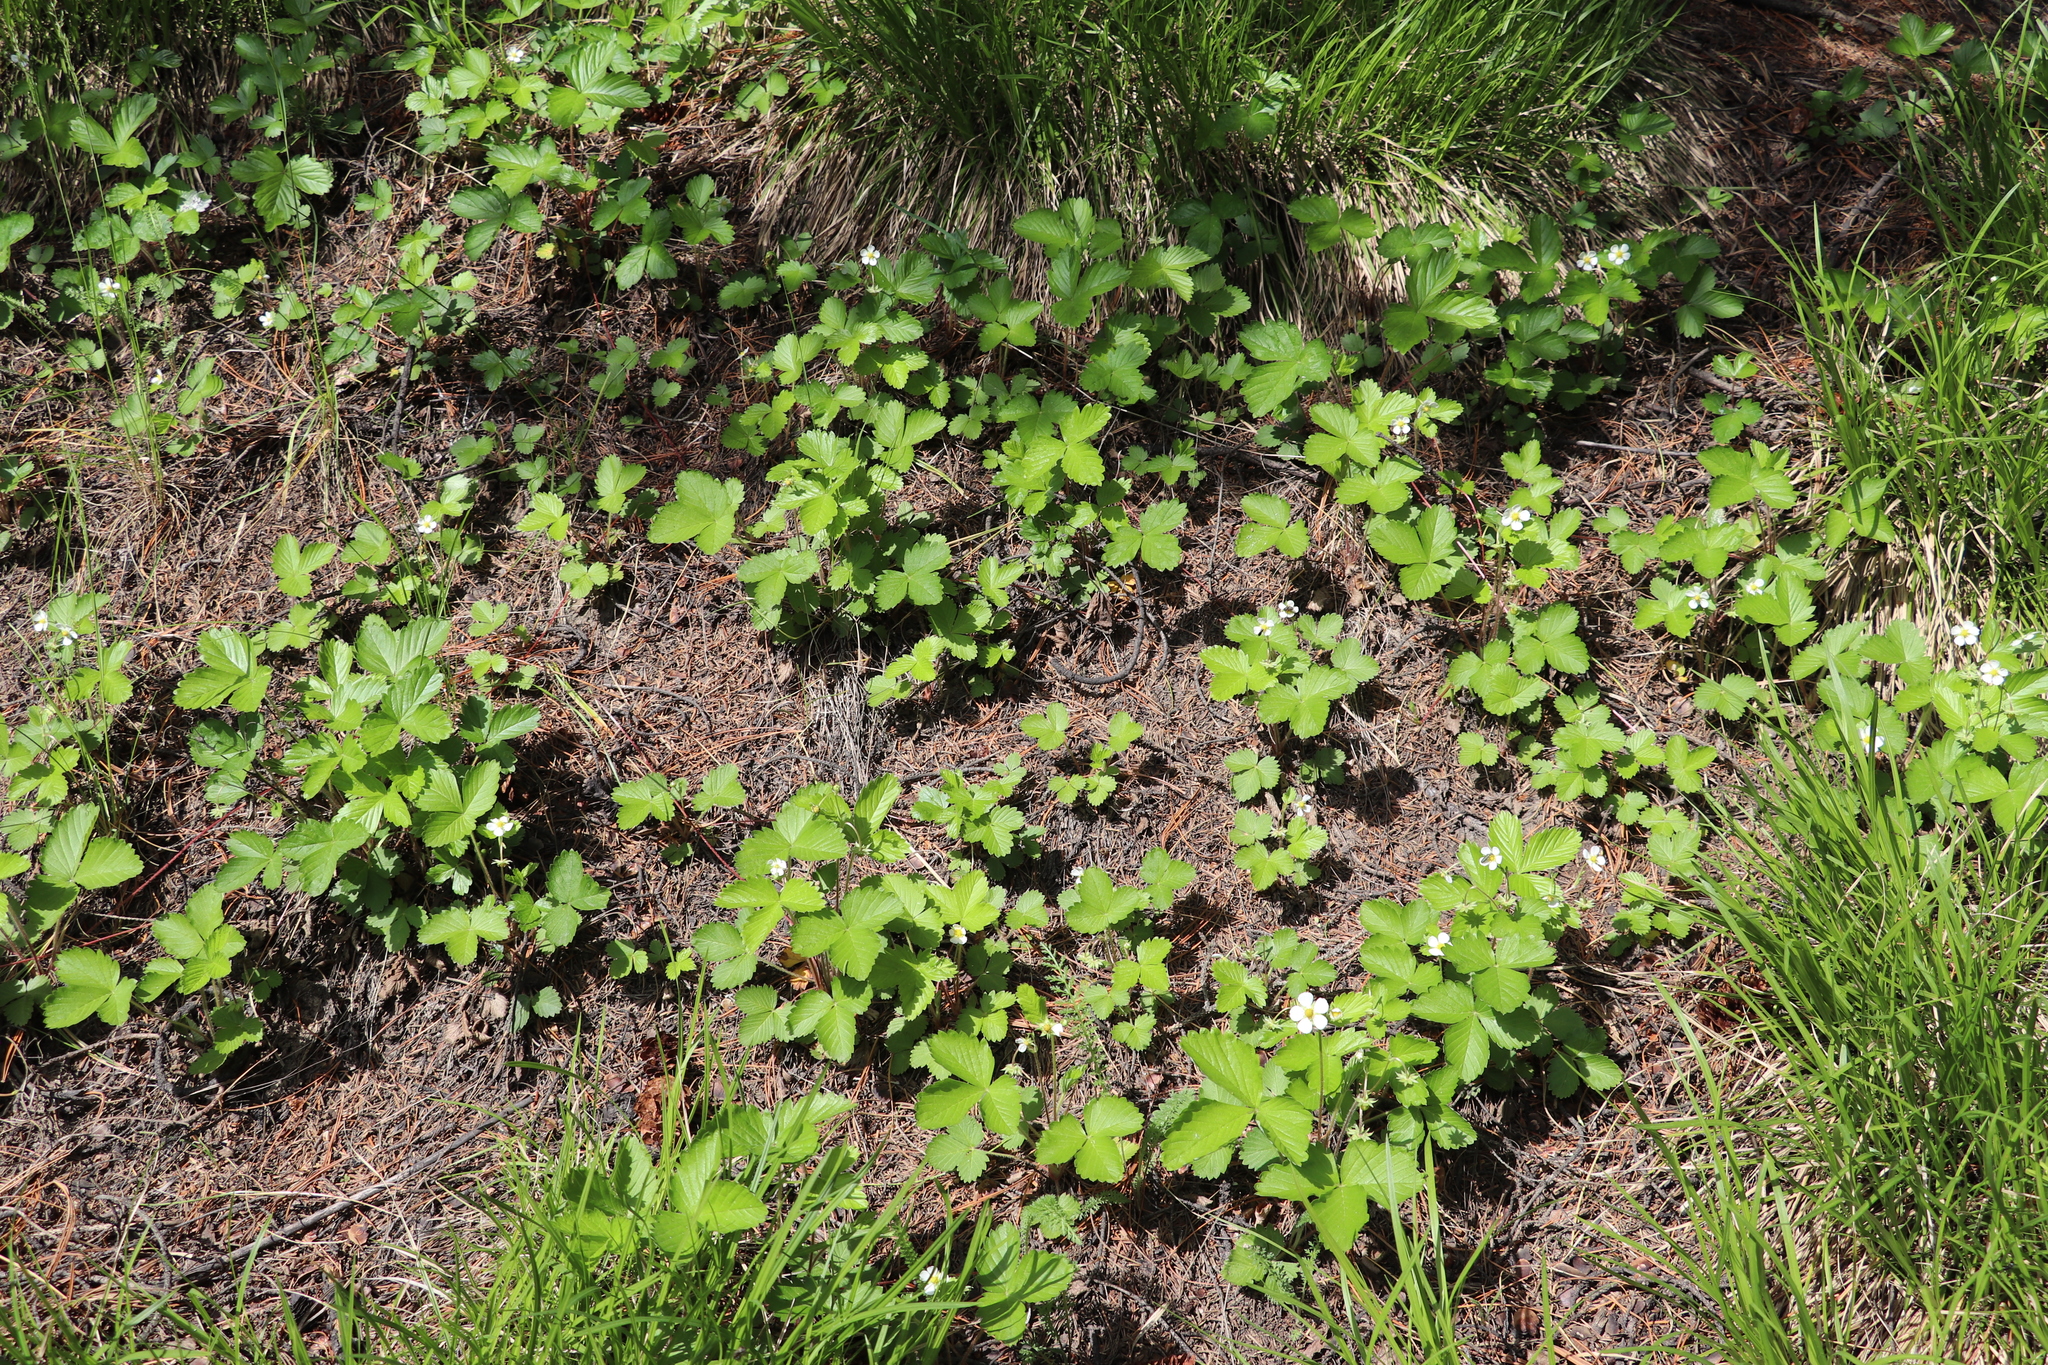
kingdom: Plantae
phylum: Tracheophyta
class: Magnoliopsida
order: Rosales
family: Rosaceae
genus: Fragaria
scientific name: Fragaria vesca
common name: Wild strawberry
